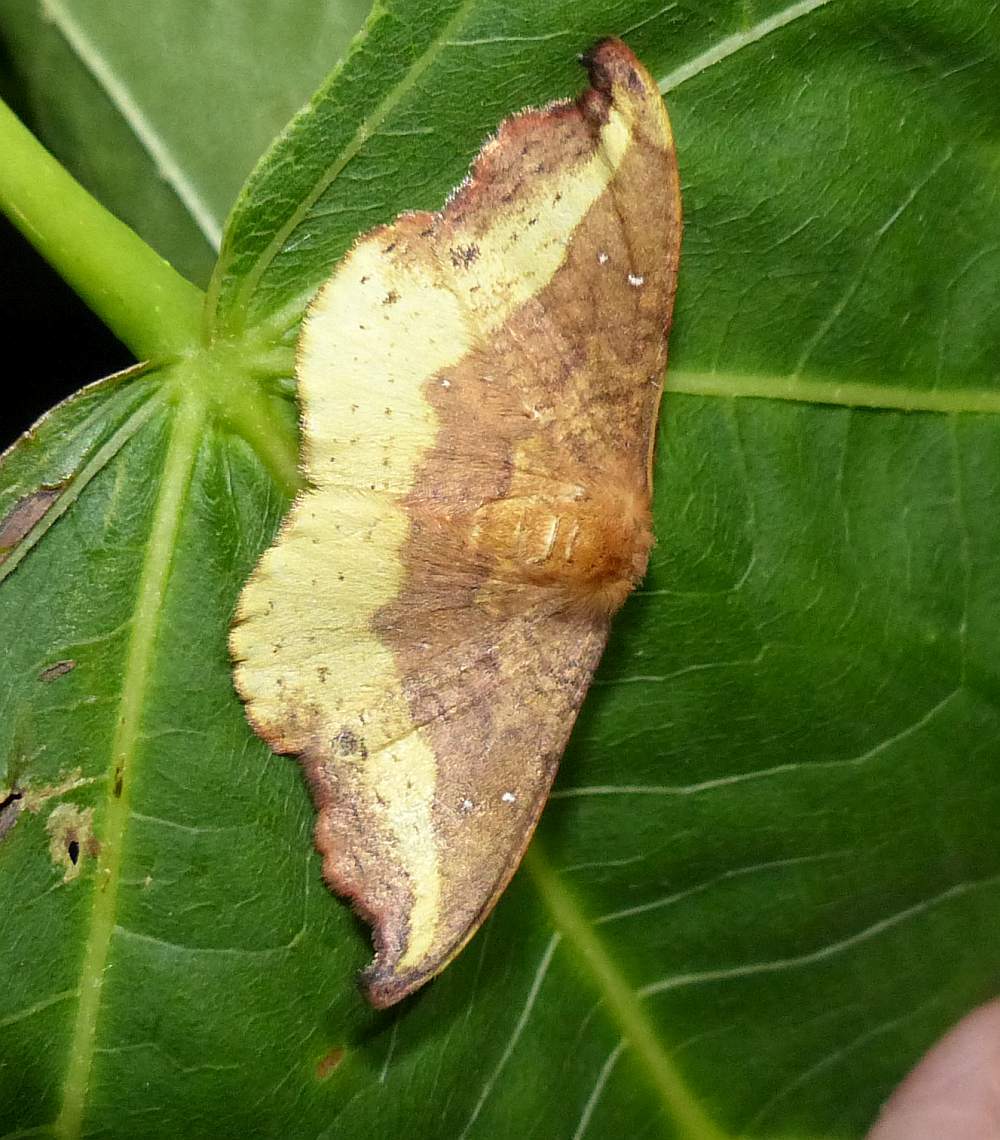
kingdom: Animalia
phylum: Arthropoda
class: Insecta
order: Lepidoptera
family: Drepanidae
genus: Oreta
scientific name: Oreta rosea
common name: Rose hooktip
